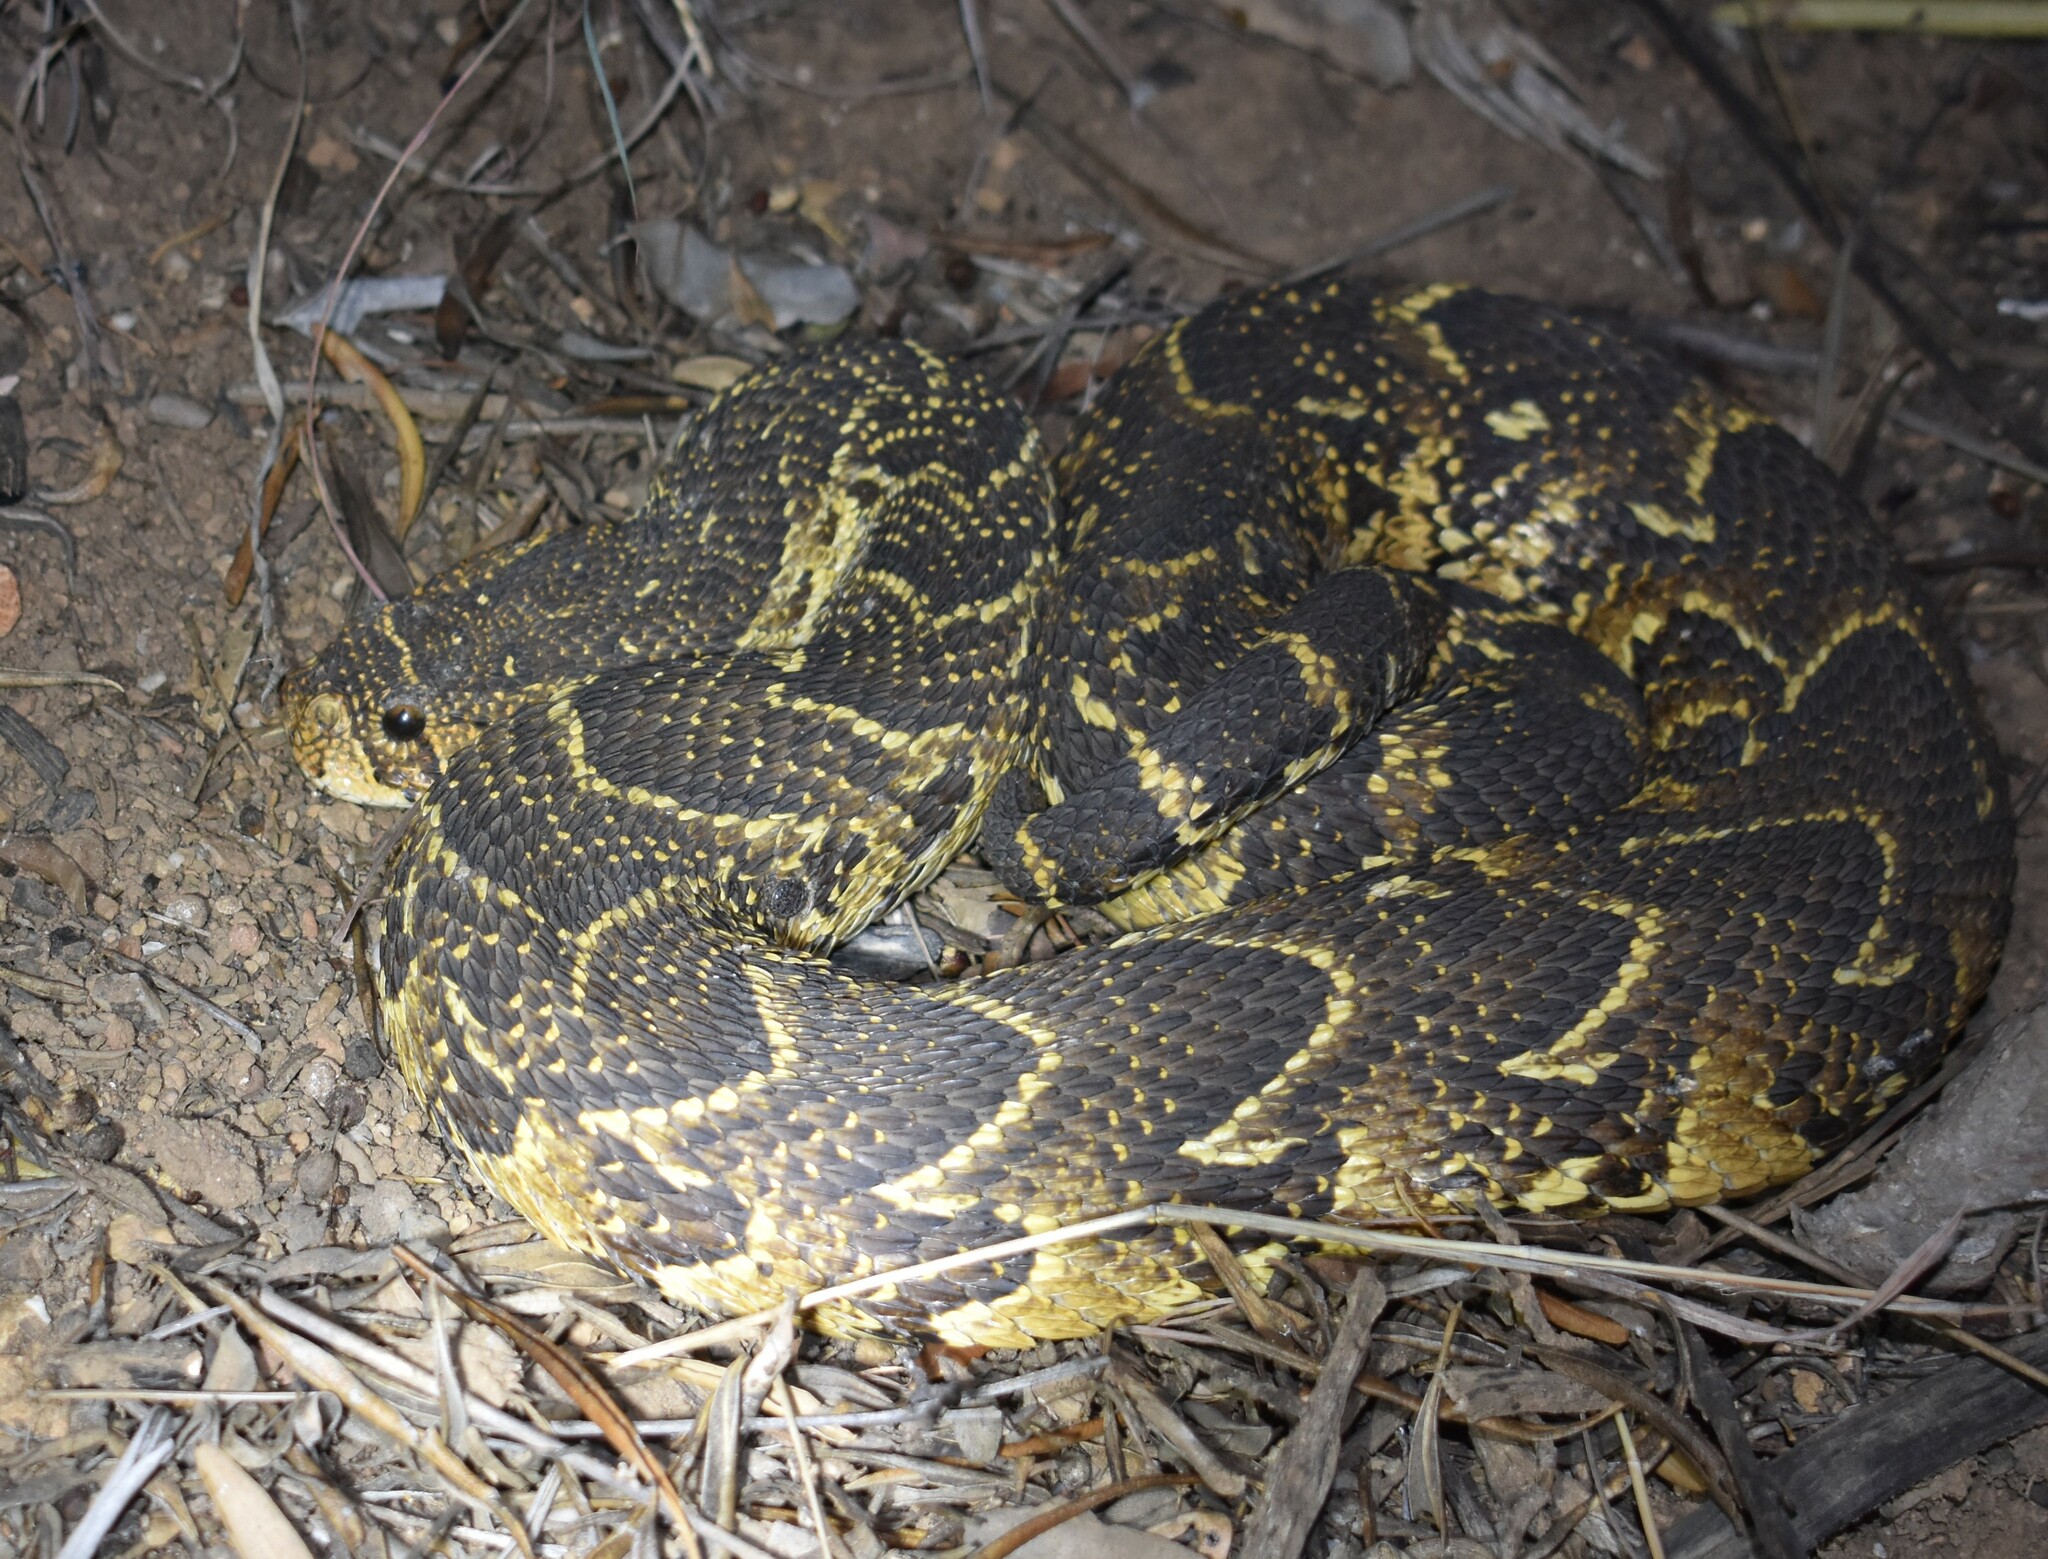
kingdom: Animalia
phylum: Chordata
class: Squamata
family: Viperidae
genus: Bitis
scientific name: Bitis arietans
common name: Puff adder
